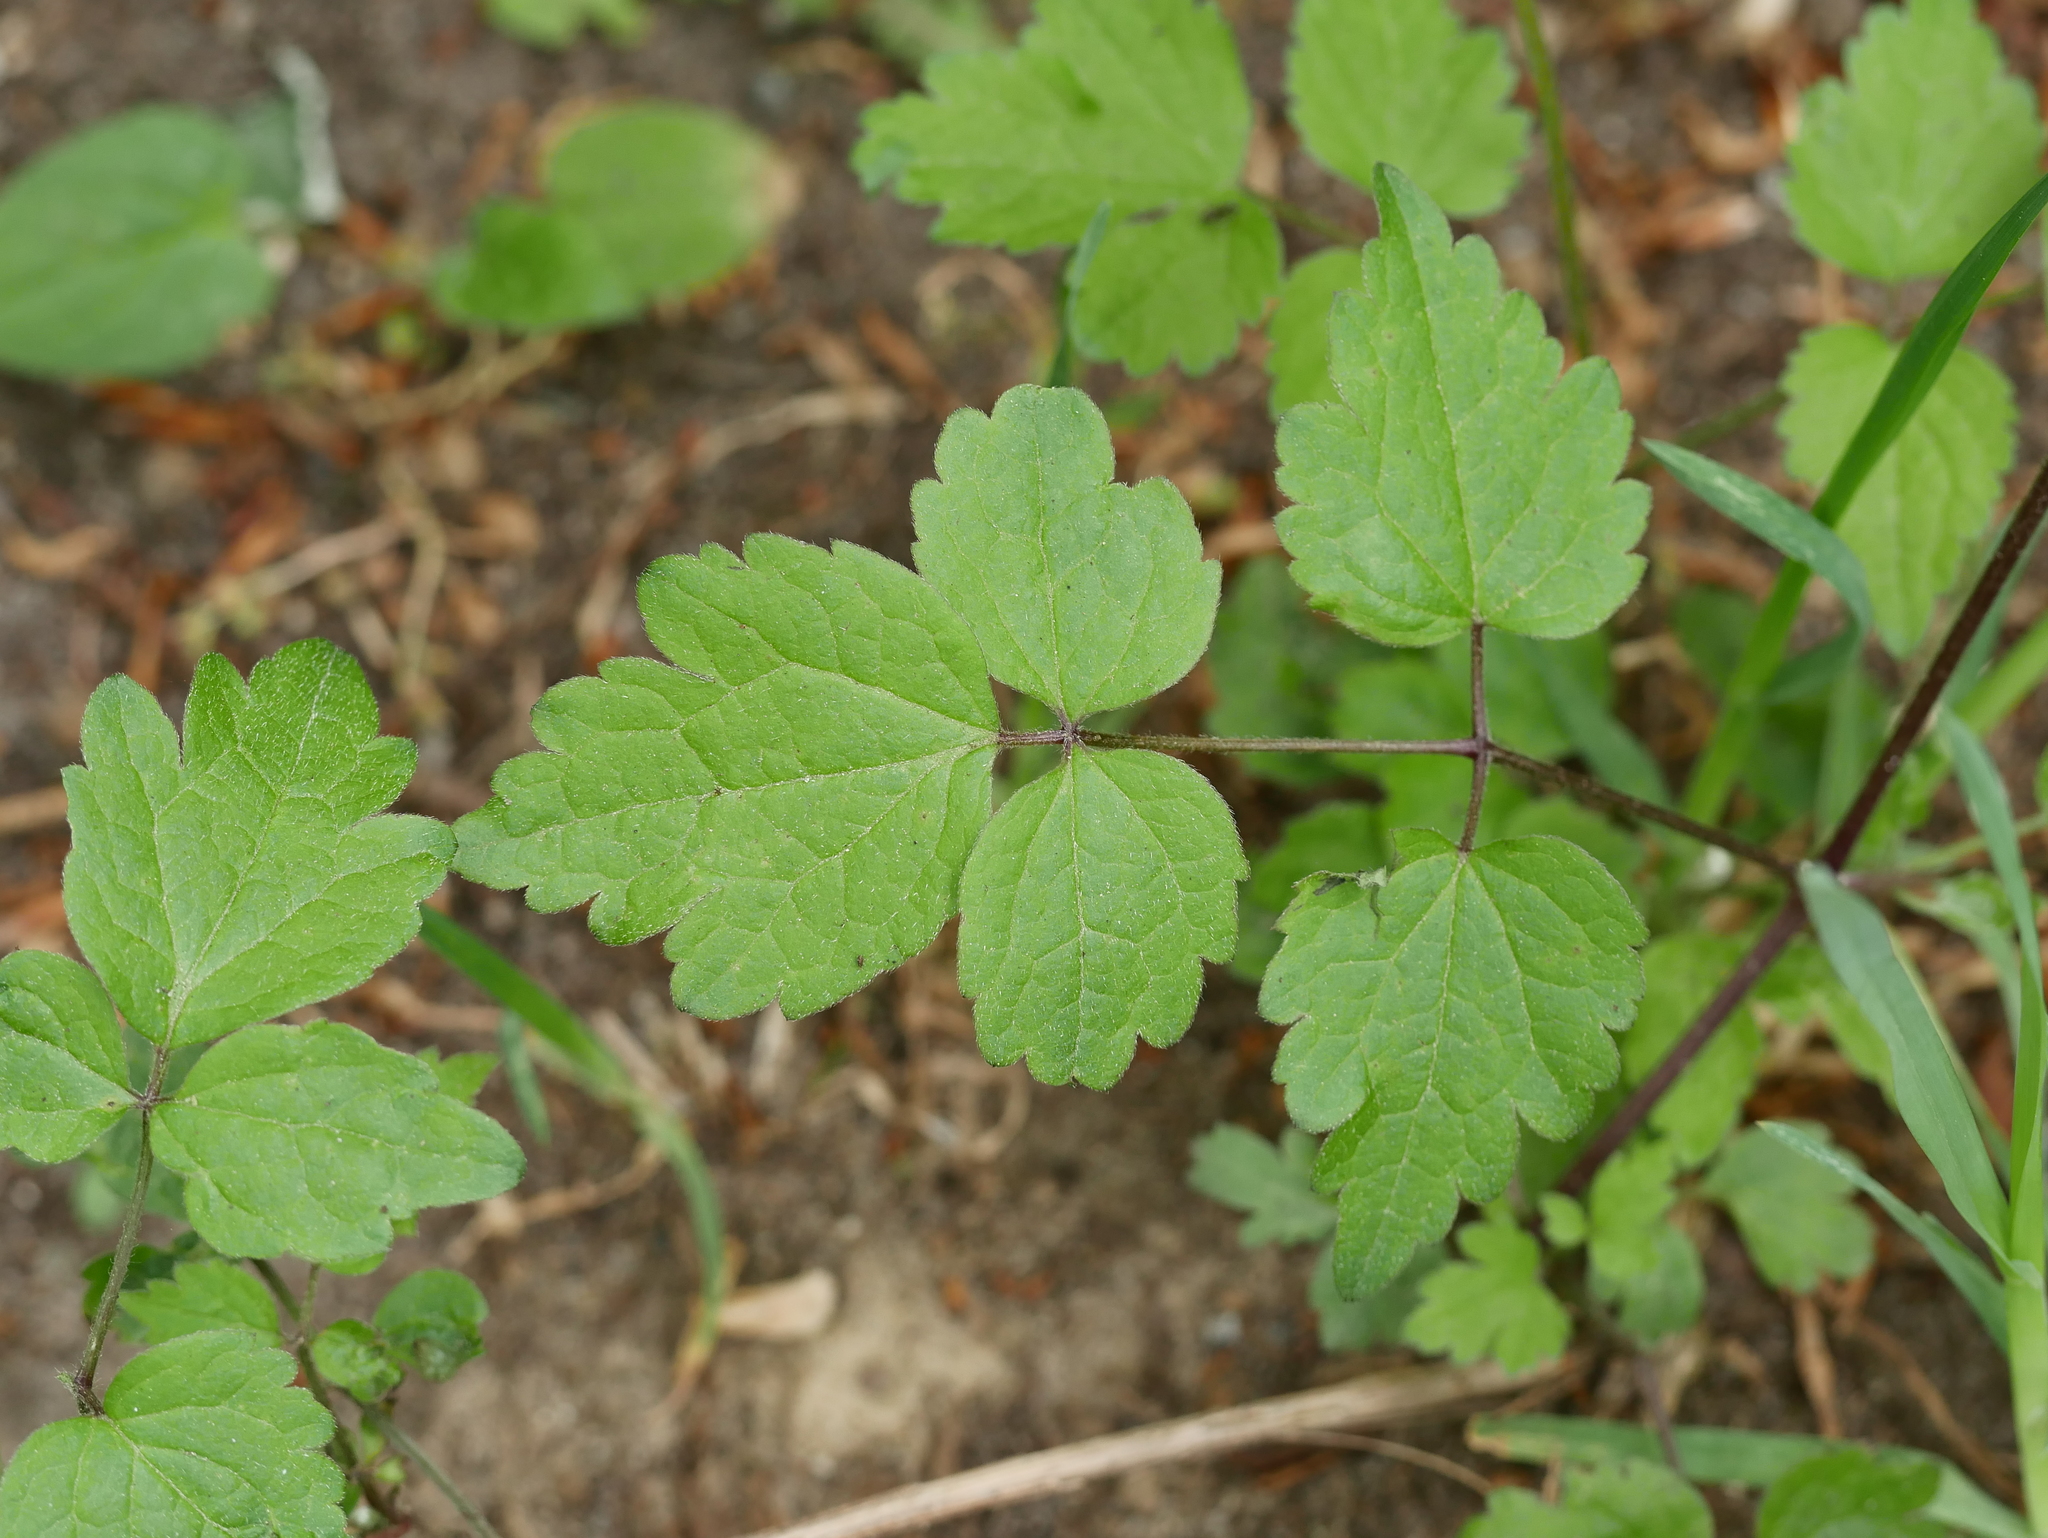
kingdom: Plantae
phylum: Tracheophyta
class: Magnoliopsida
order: Ranunculales
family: Ranunculaceae
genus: Clematis
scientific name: Clematis vitalba
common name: Evergreen clematis
